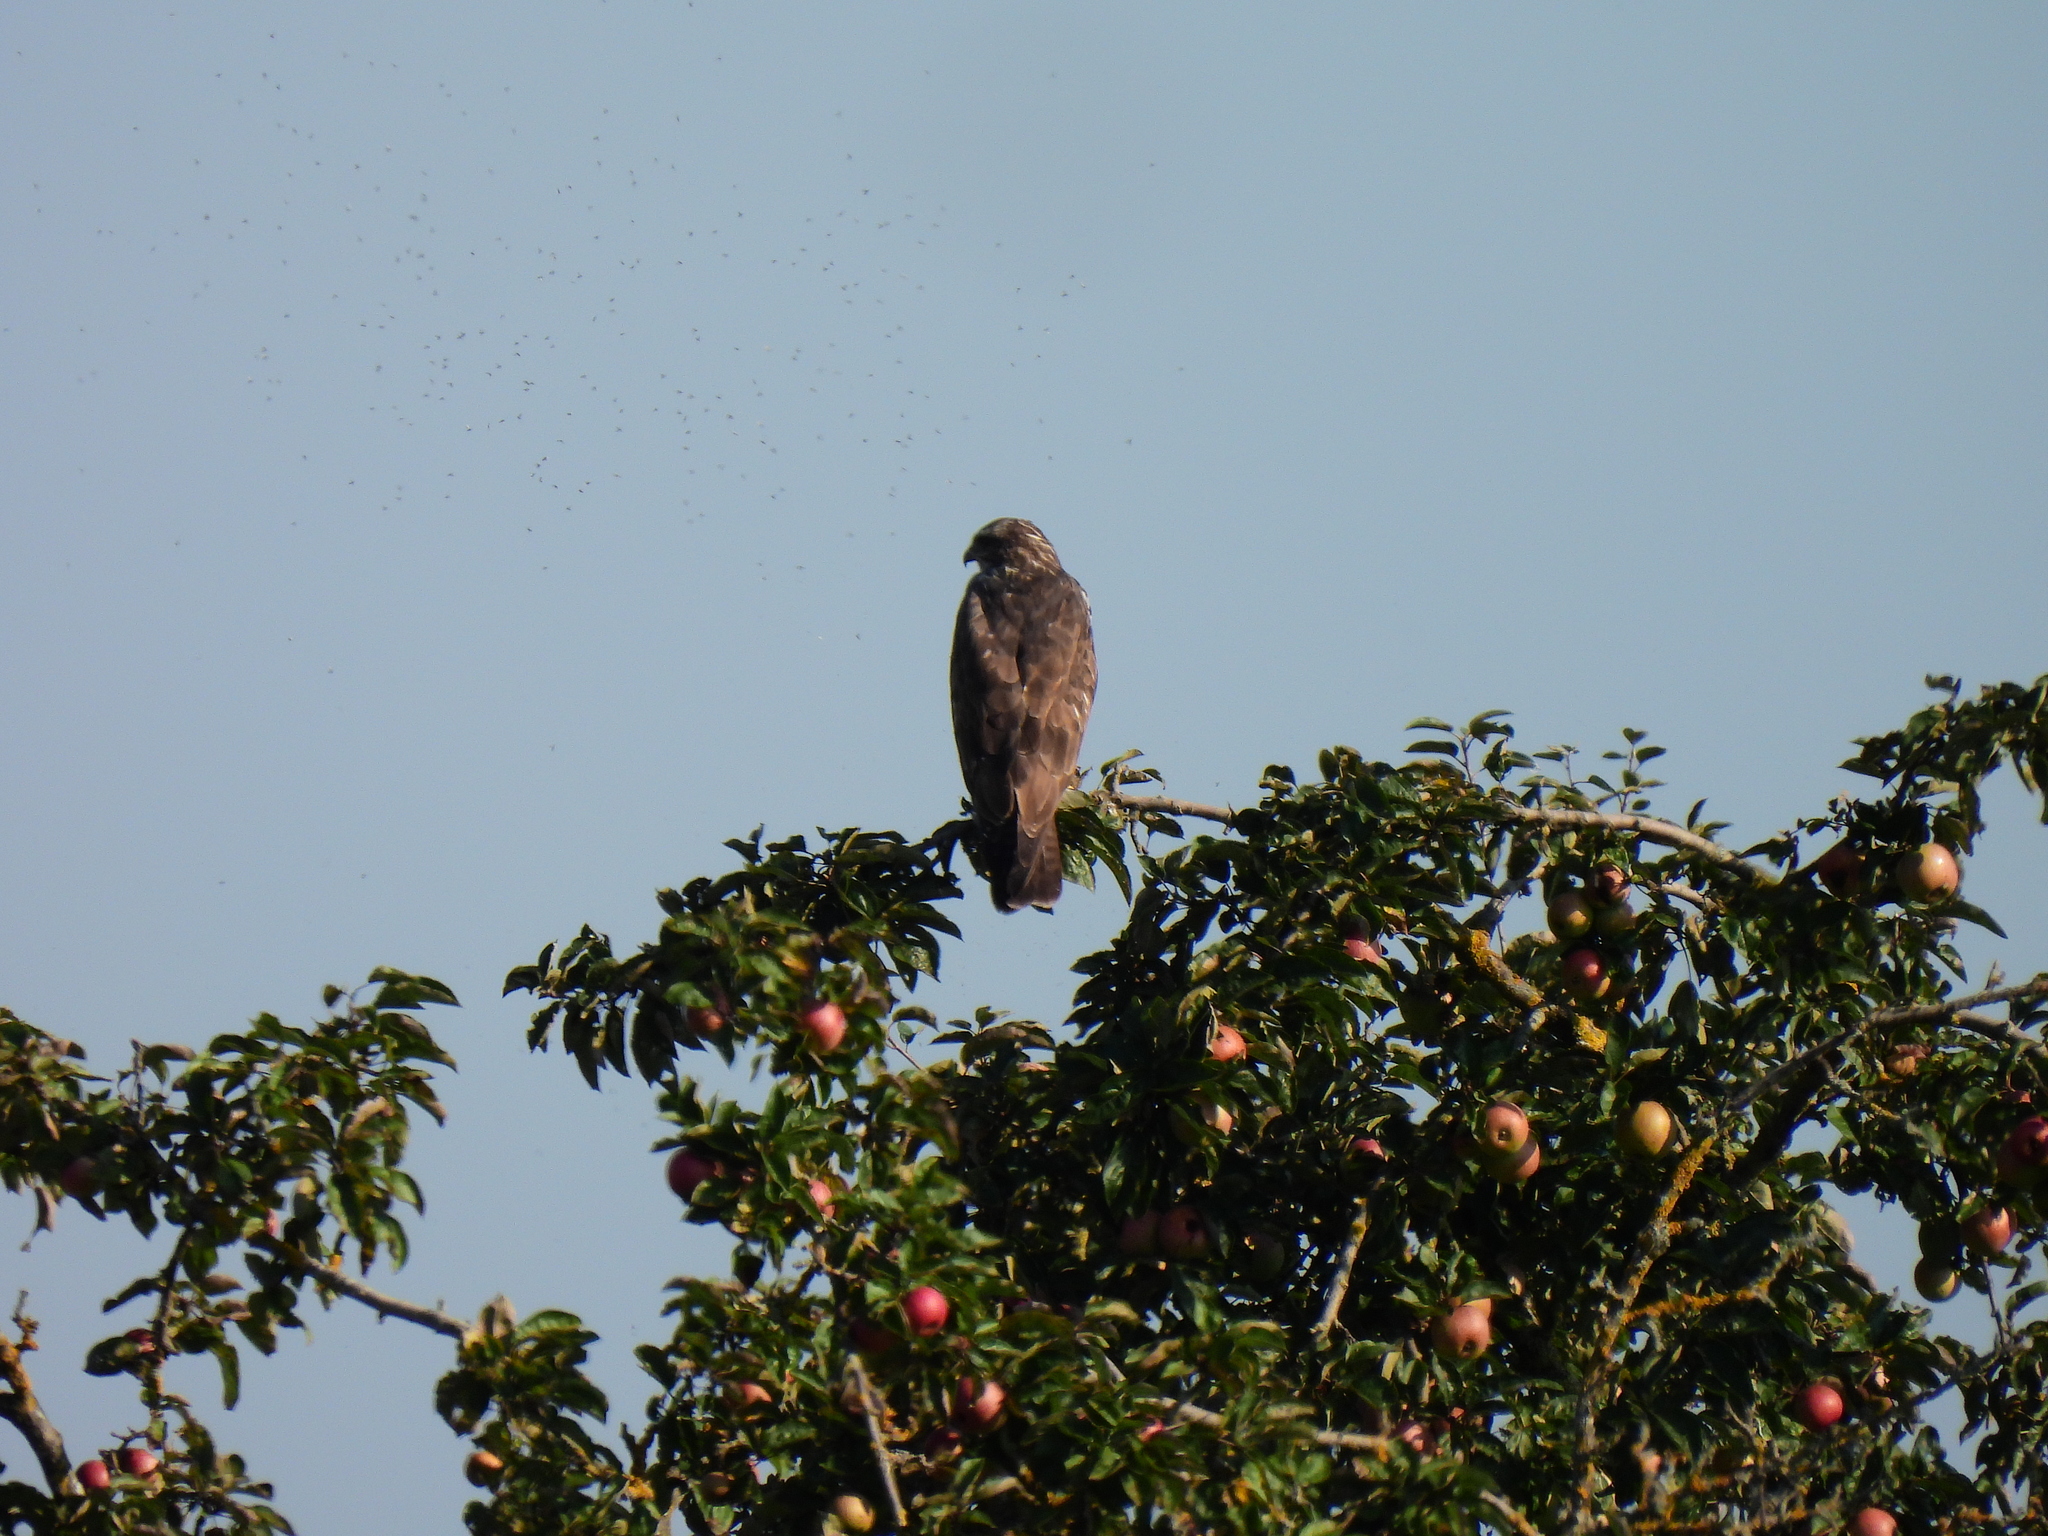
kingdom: Animalia
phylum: Chordata
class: Aves
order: Accipitriformes
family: Accipitridae
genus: Buteo
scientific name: Buteo buteo
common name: Common buzzard
